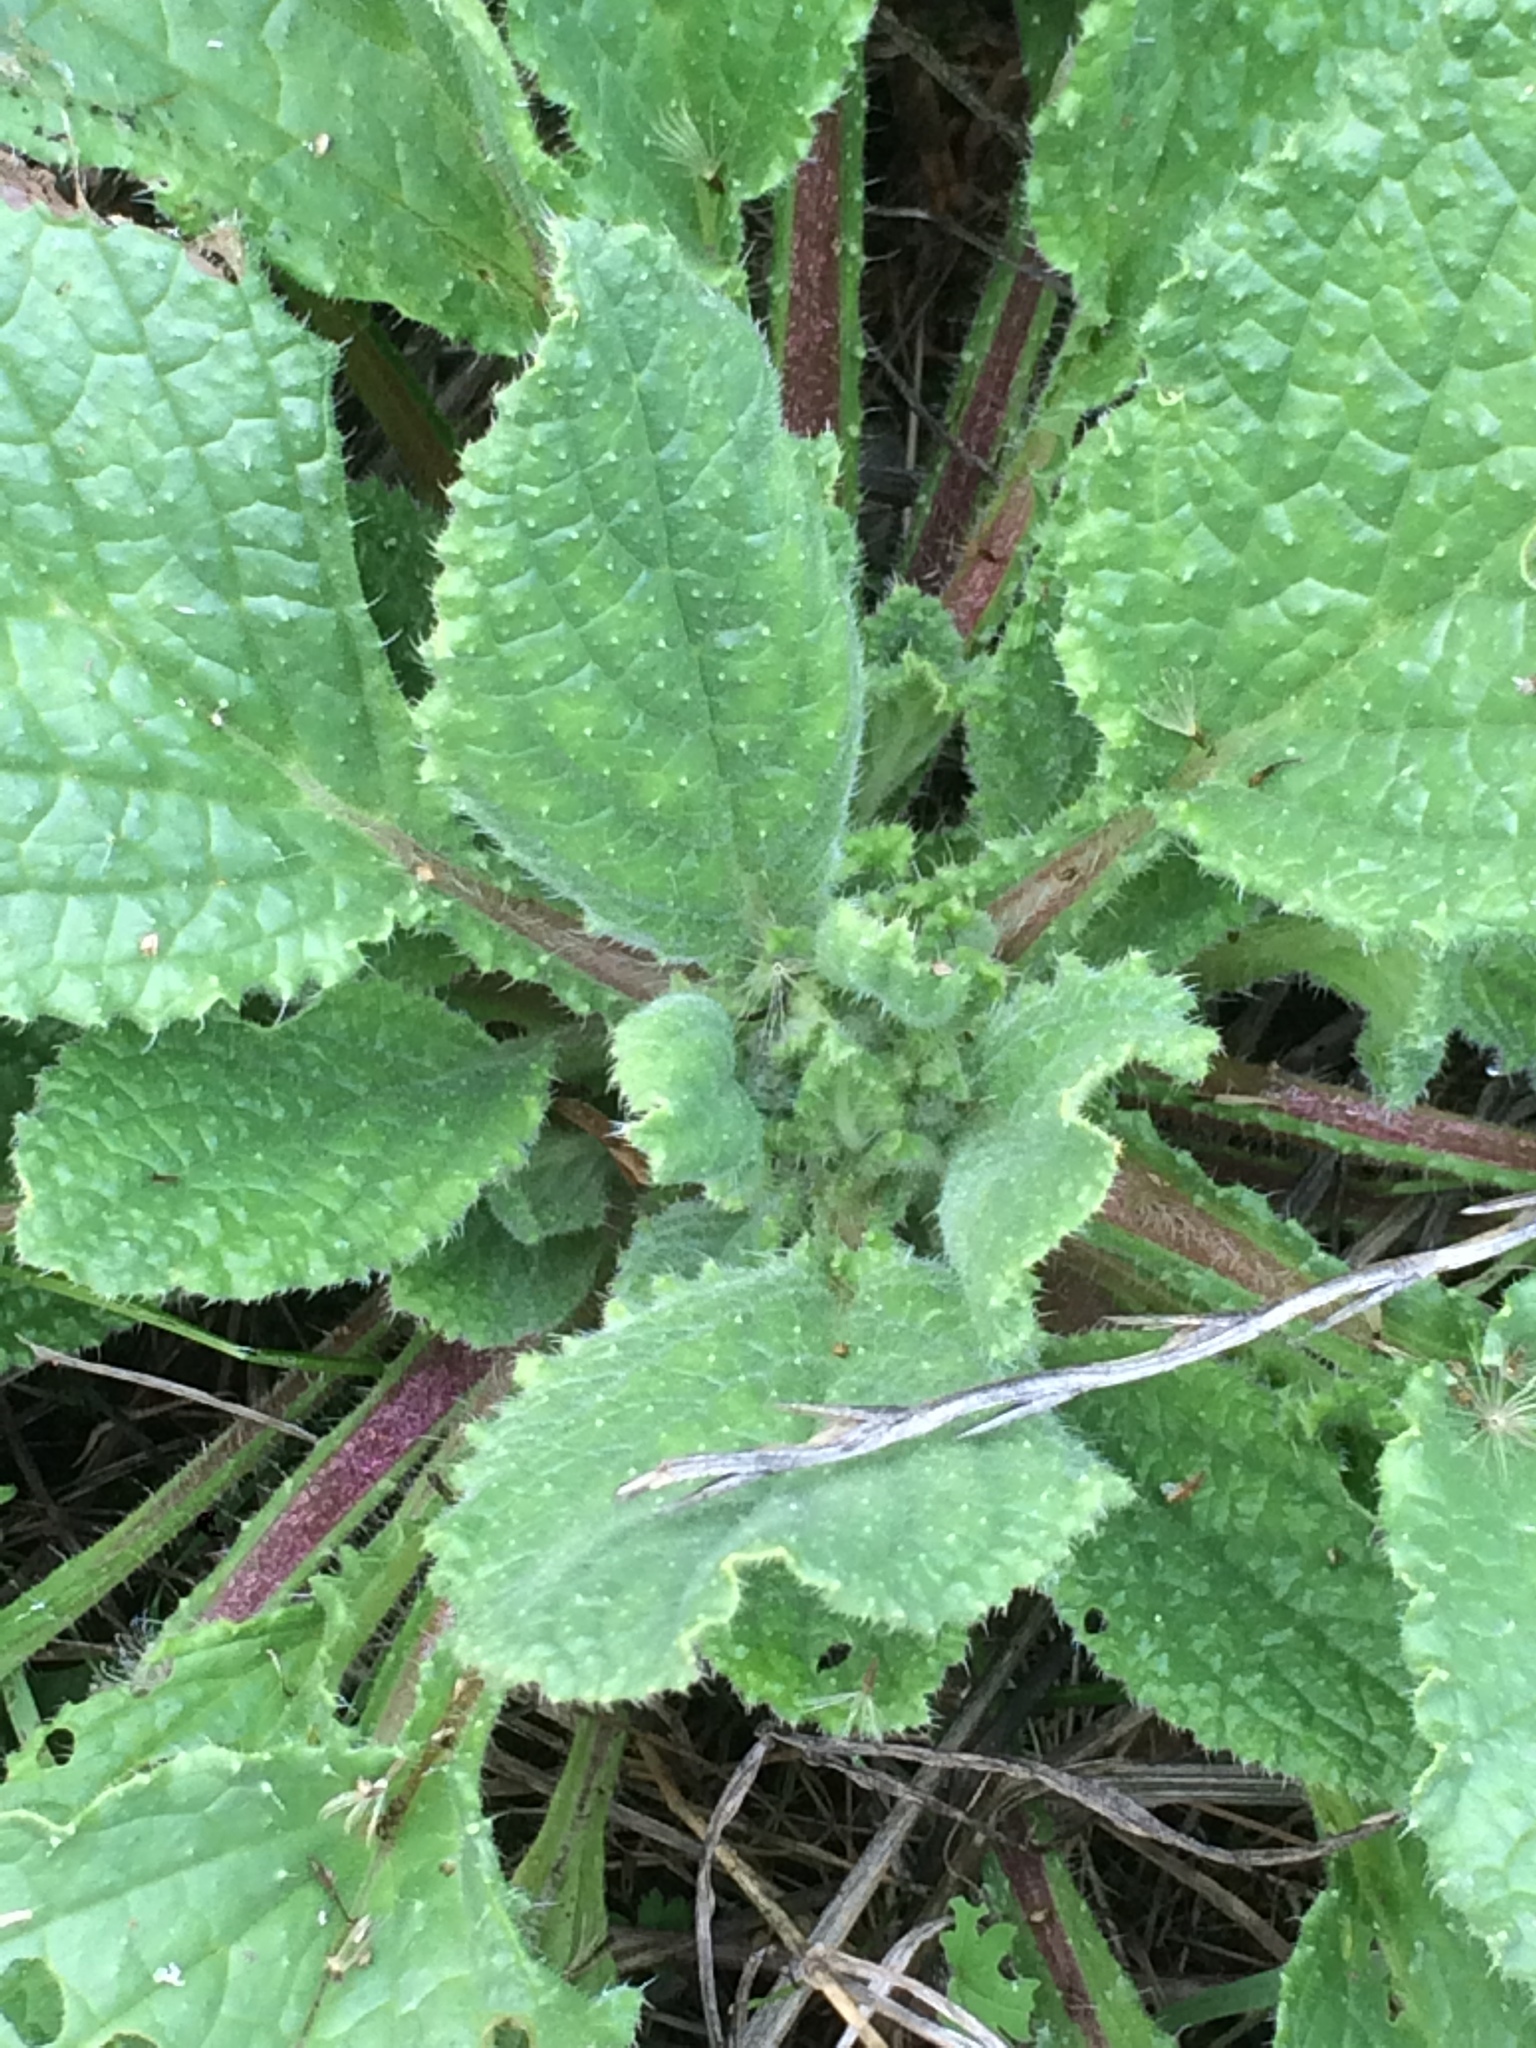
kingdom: Plantae
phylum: Tracheophyta
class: Magnoliopsida
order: Lamiales
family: Plantaginaceae
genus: Digitalis
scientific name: Digitalis purpurea
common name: Foxglove
